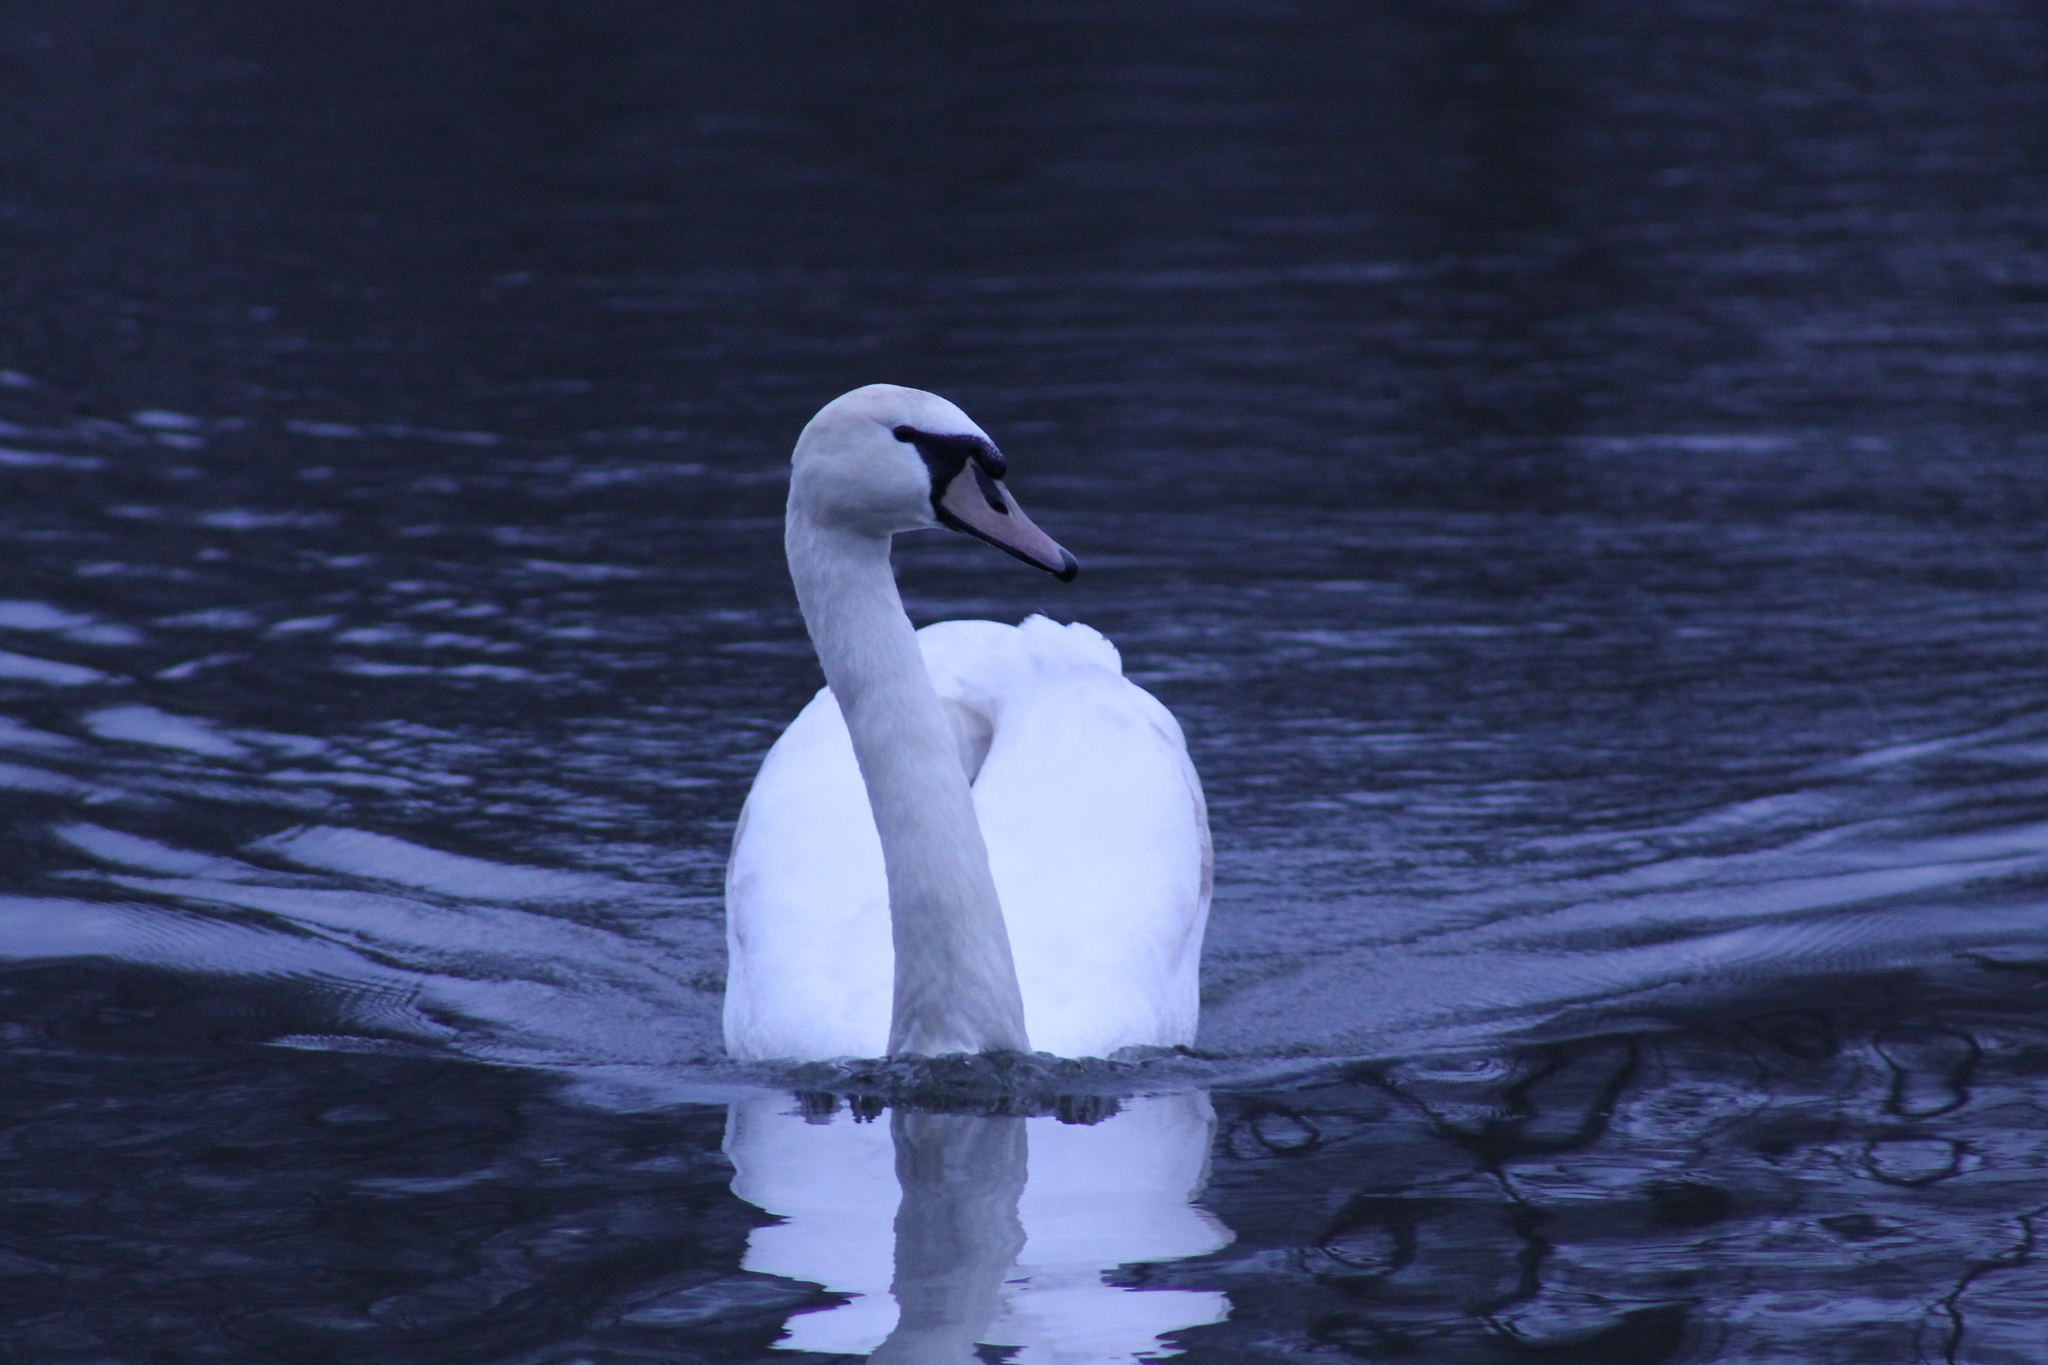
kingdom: Animalia
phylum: Chordata
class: Aves
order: Anseriformes
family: Anatidae
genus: Cygnus
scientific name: Cygnus olor
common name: Mute swan
